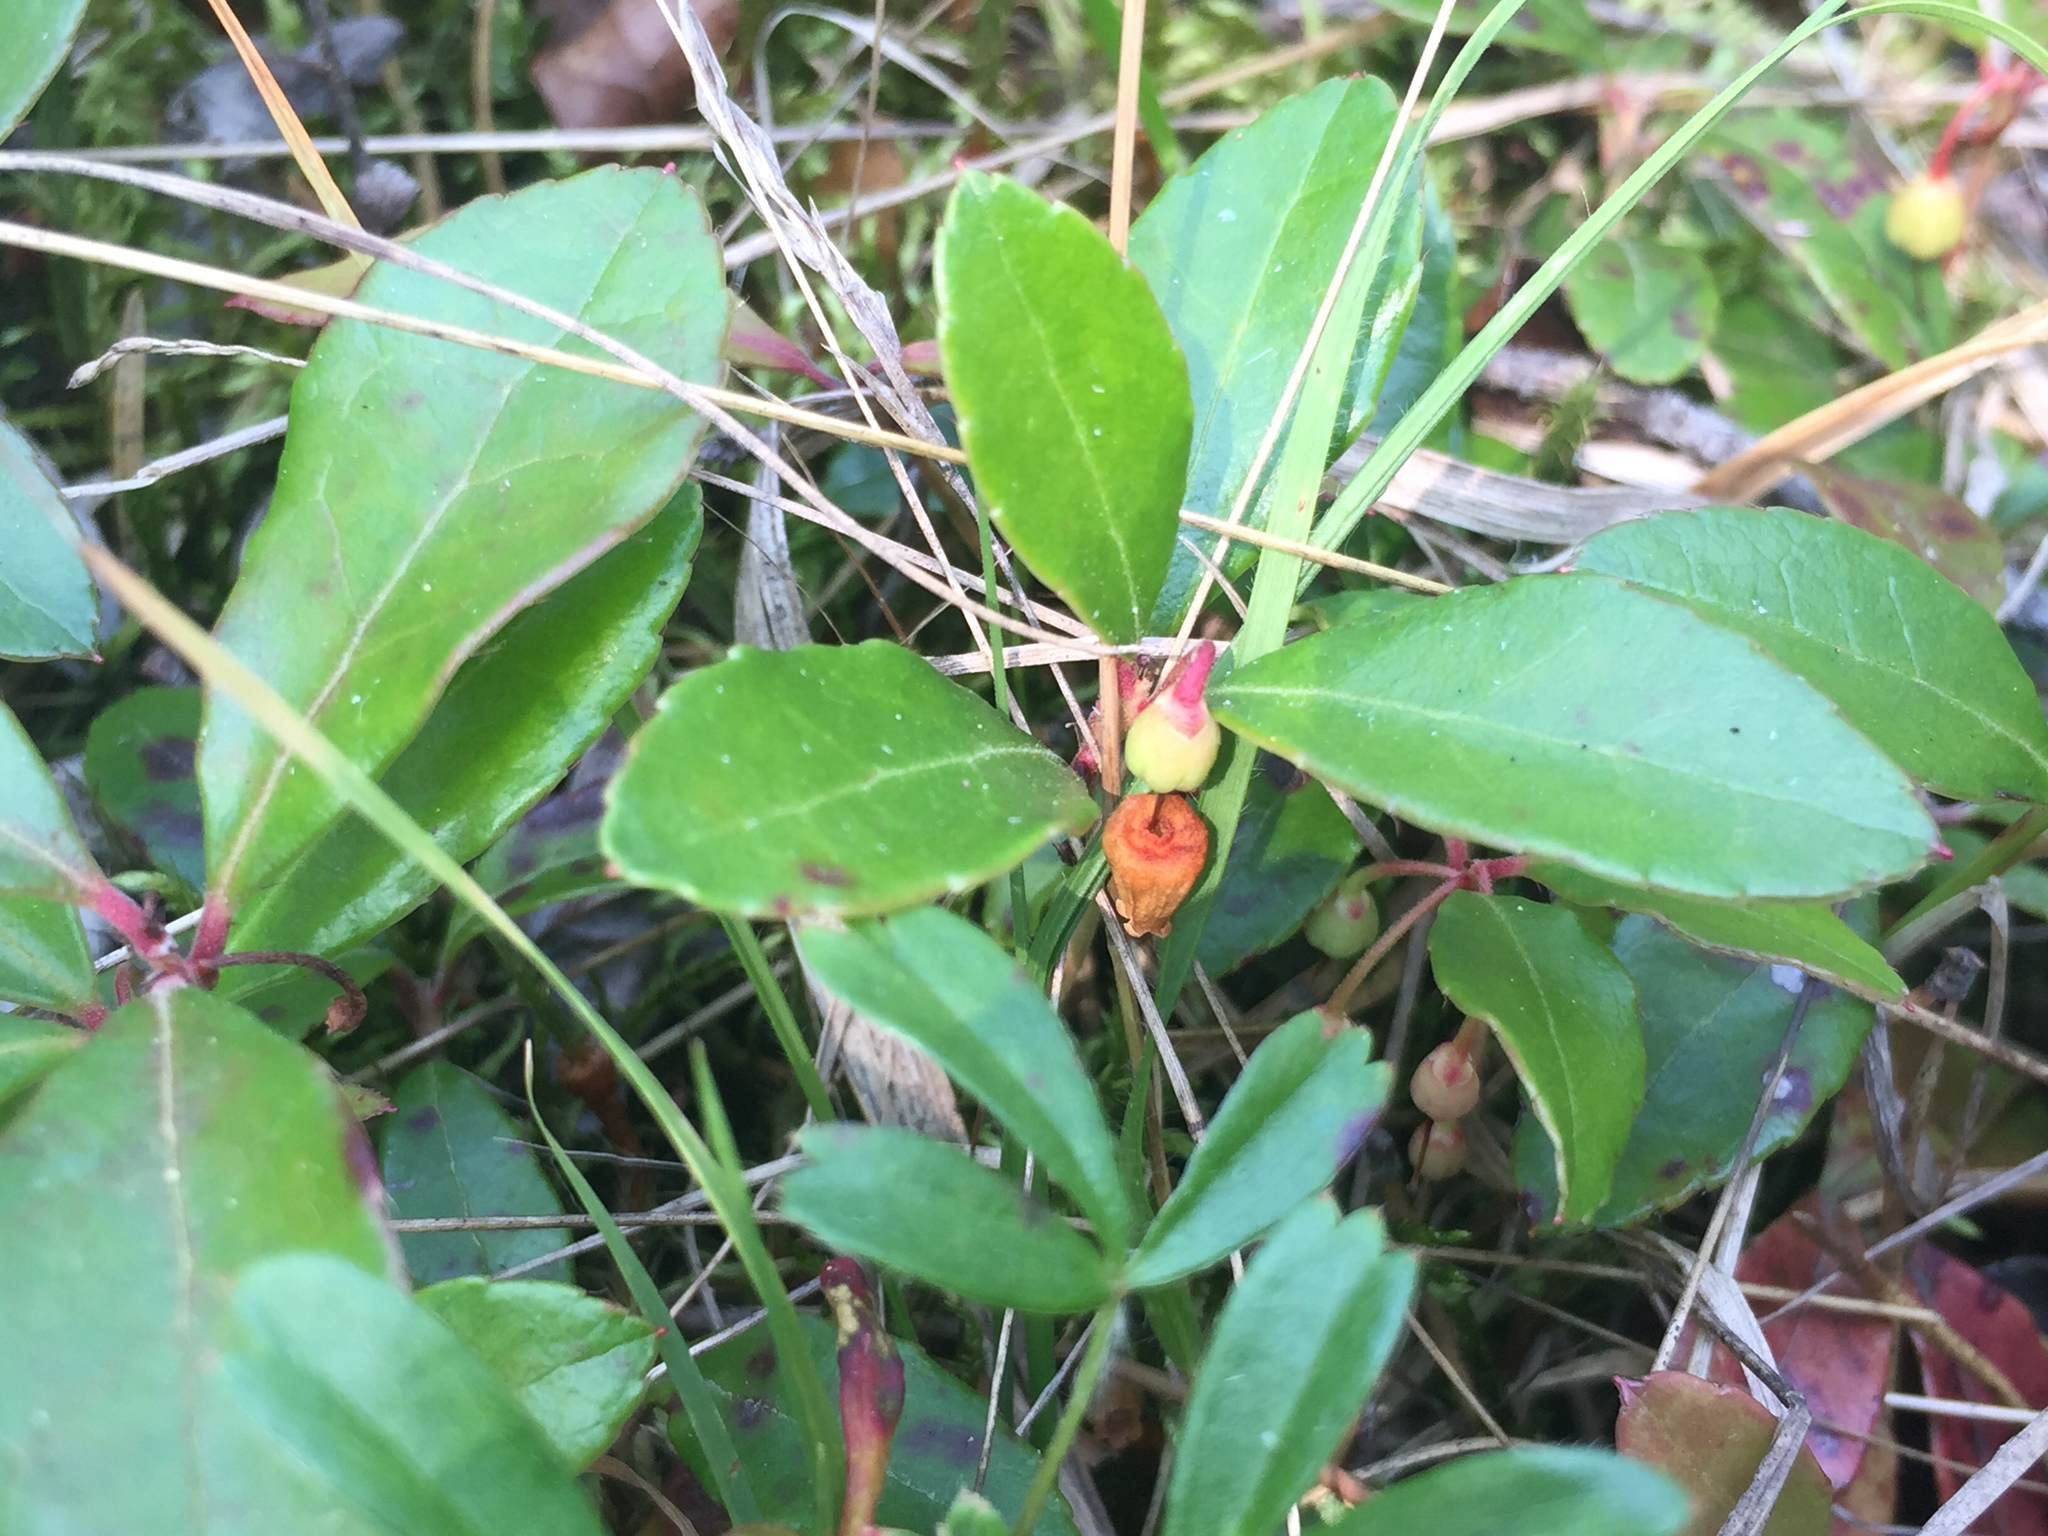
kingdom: Plantae
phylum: Tracheophyta
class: Magnoliopsida
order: Ericales
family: Ericaceae
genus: Gaultheria
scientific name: Gaultheria procumbens
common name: Checkerberry
